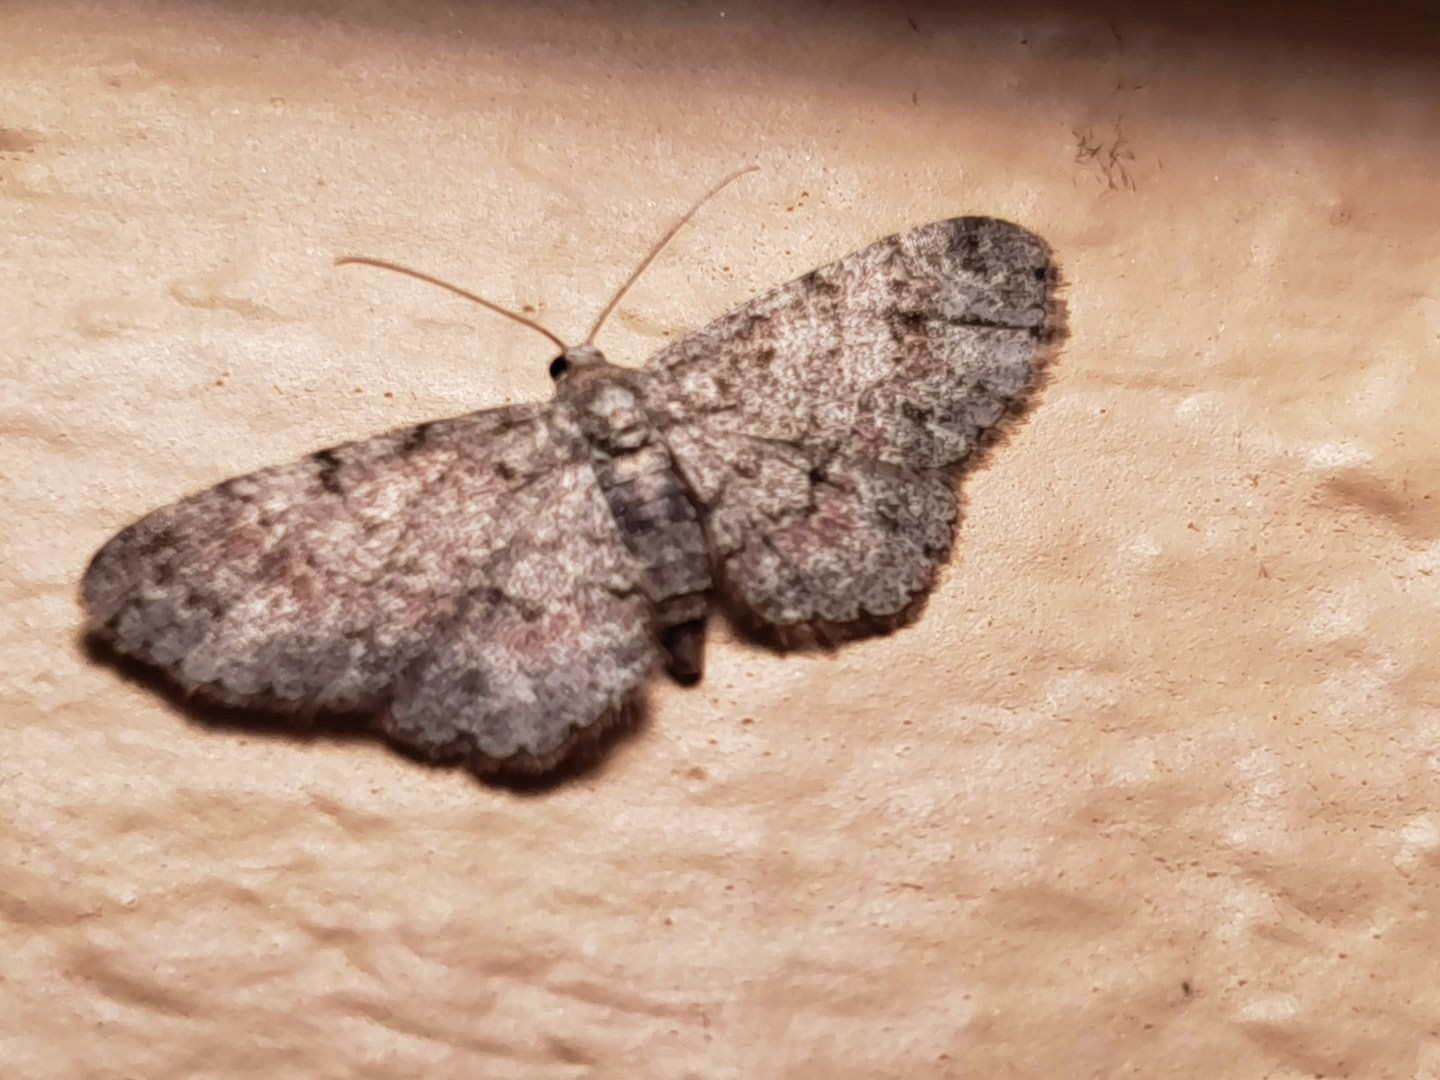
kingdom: Animalia
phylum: Arthropoda
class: Insecta
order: Lepidoptera
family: Geometridae
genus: Glenoides
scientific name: Glenoides texanaria
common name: Texas gray
